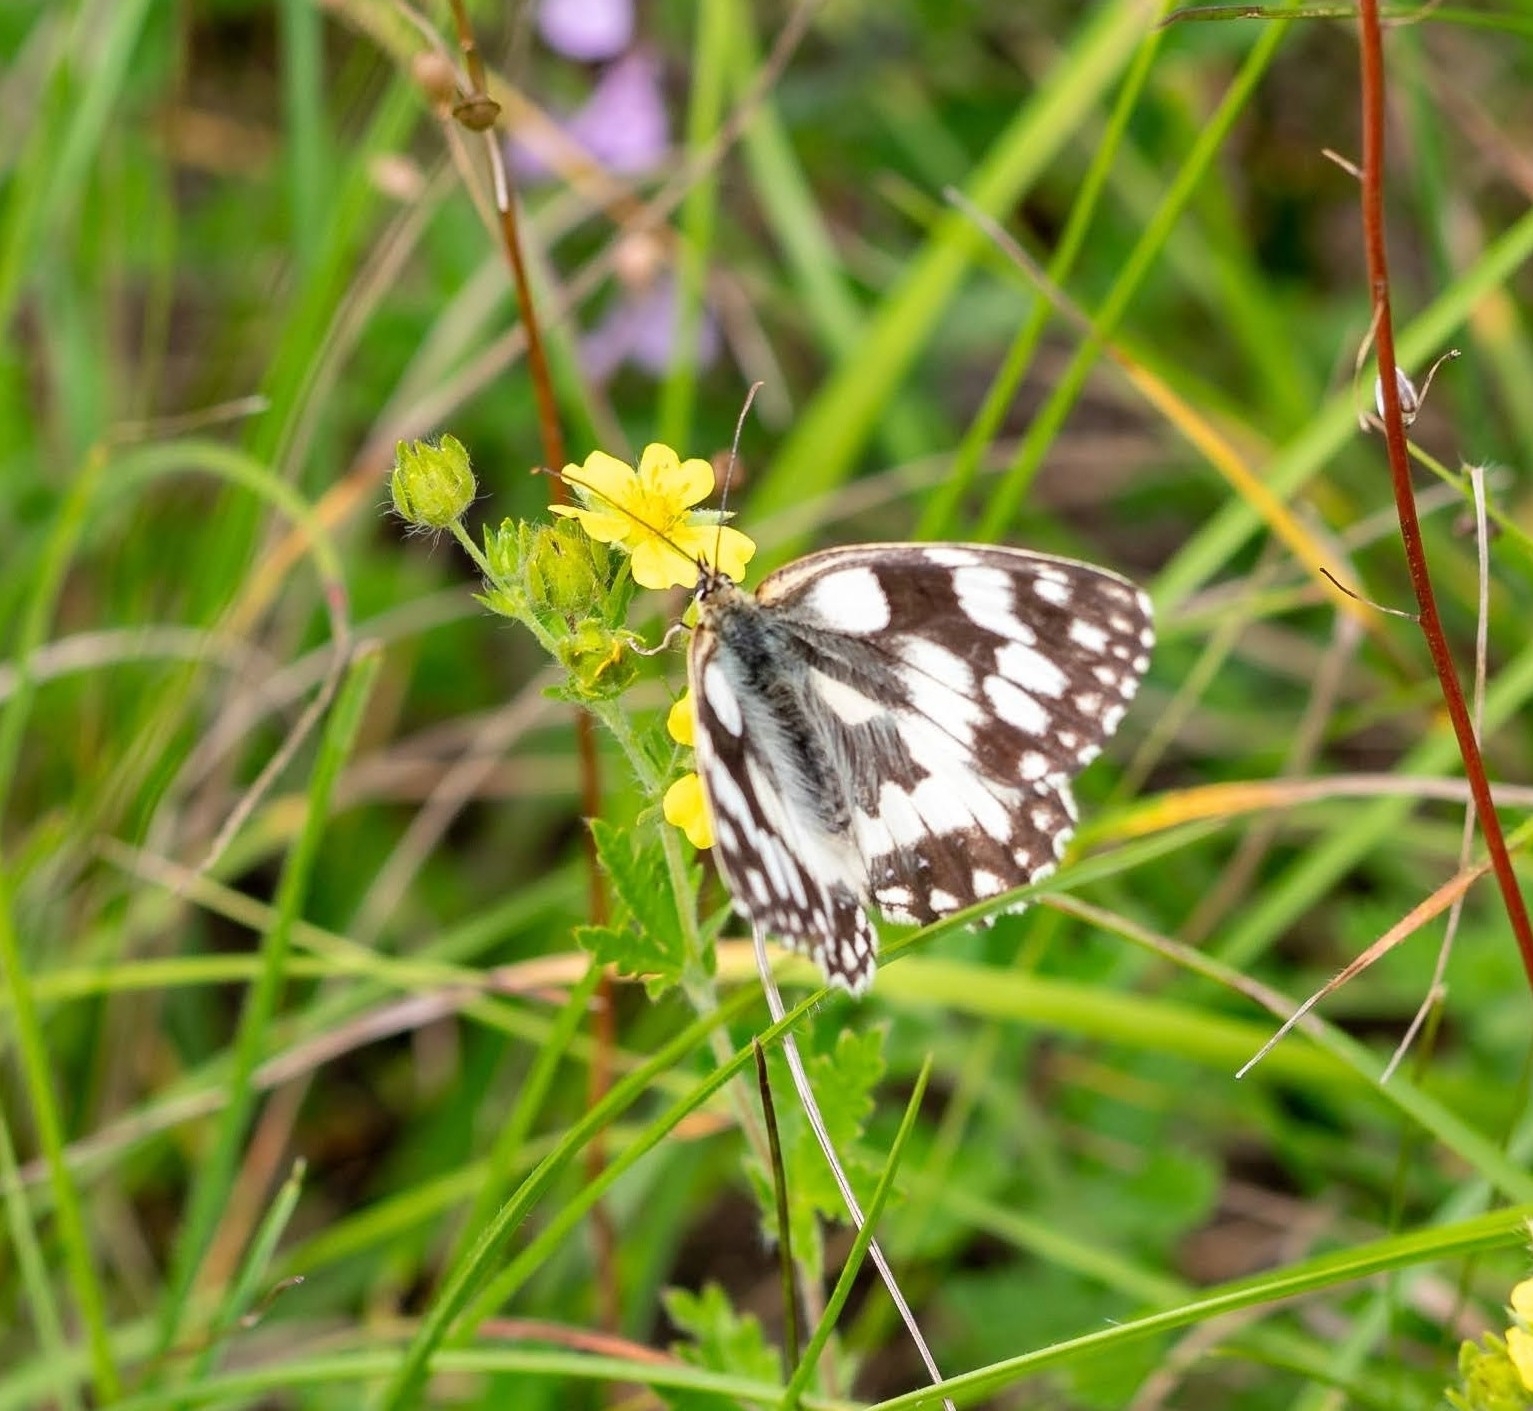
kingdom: Animalia
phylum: Arthropoda
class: Insecta
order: Lepidoptera
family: Nymphalidae
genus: Melanargia
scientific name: Melanargia galathea
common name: Marbled white
